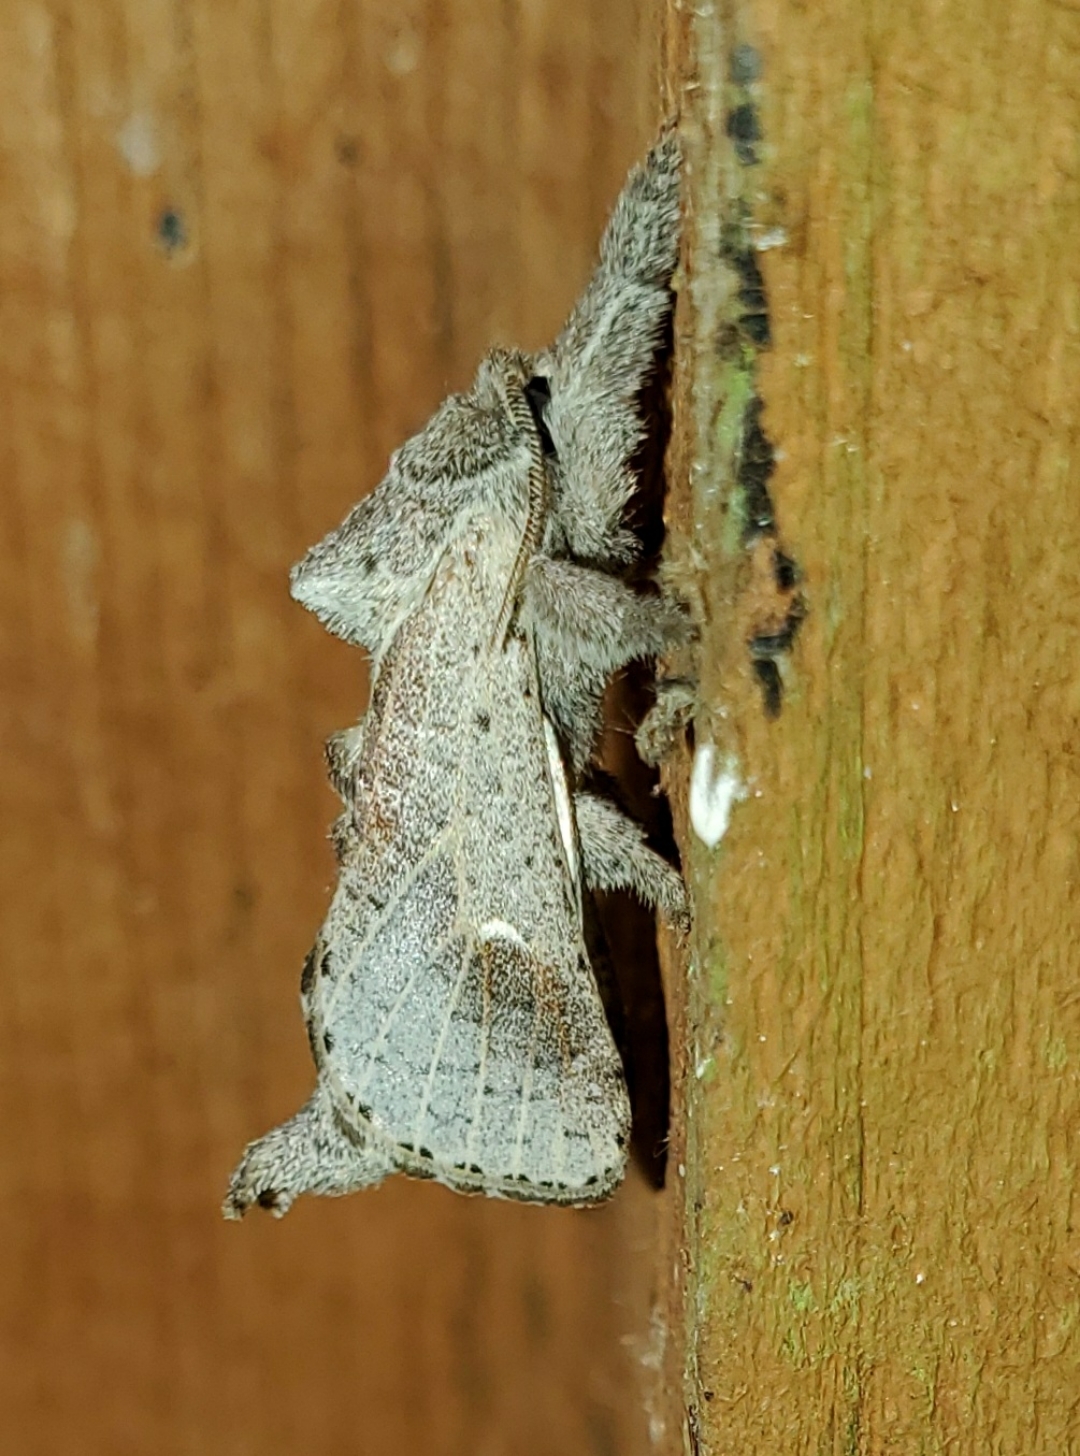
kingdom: Animalia
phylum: Arthropoda
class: Insecta
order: Lepidoptera
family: Cossidae
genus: Givira
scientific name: Givira anna
